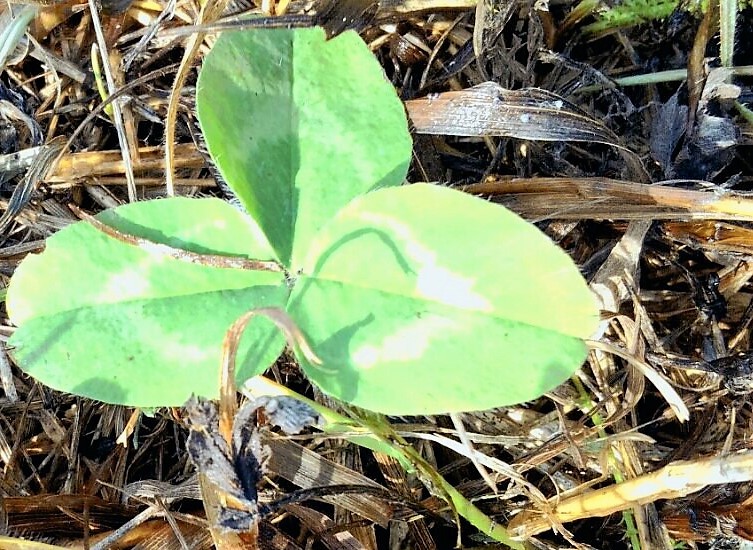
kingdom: Plantae
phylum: Tracheophyta
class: Magnoliopsida
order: Fabales
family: Fabaceae
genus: Trifolium
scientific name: Trifolium pratense
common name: Red clover
